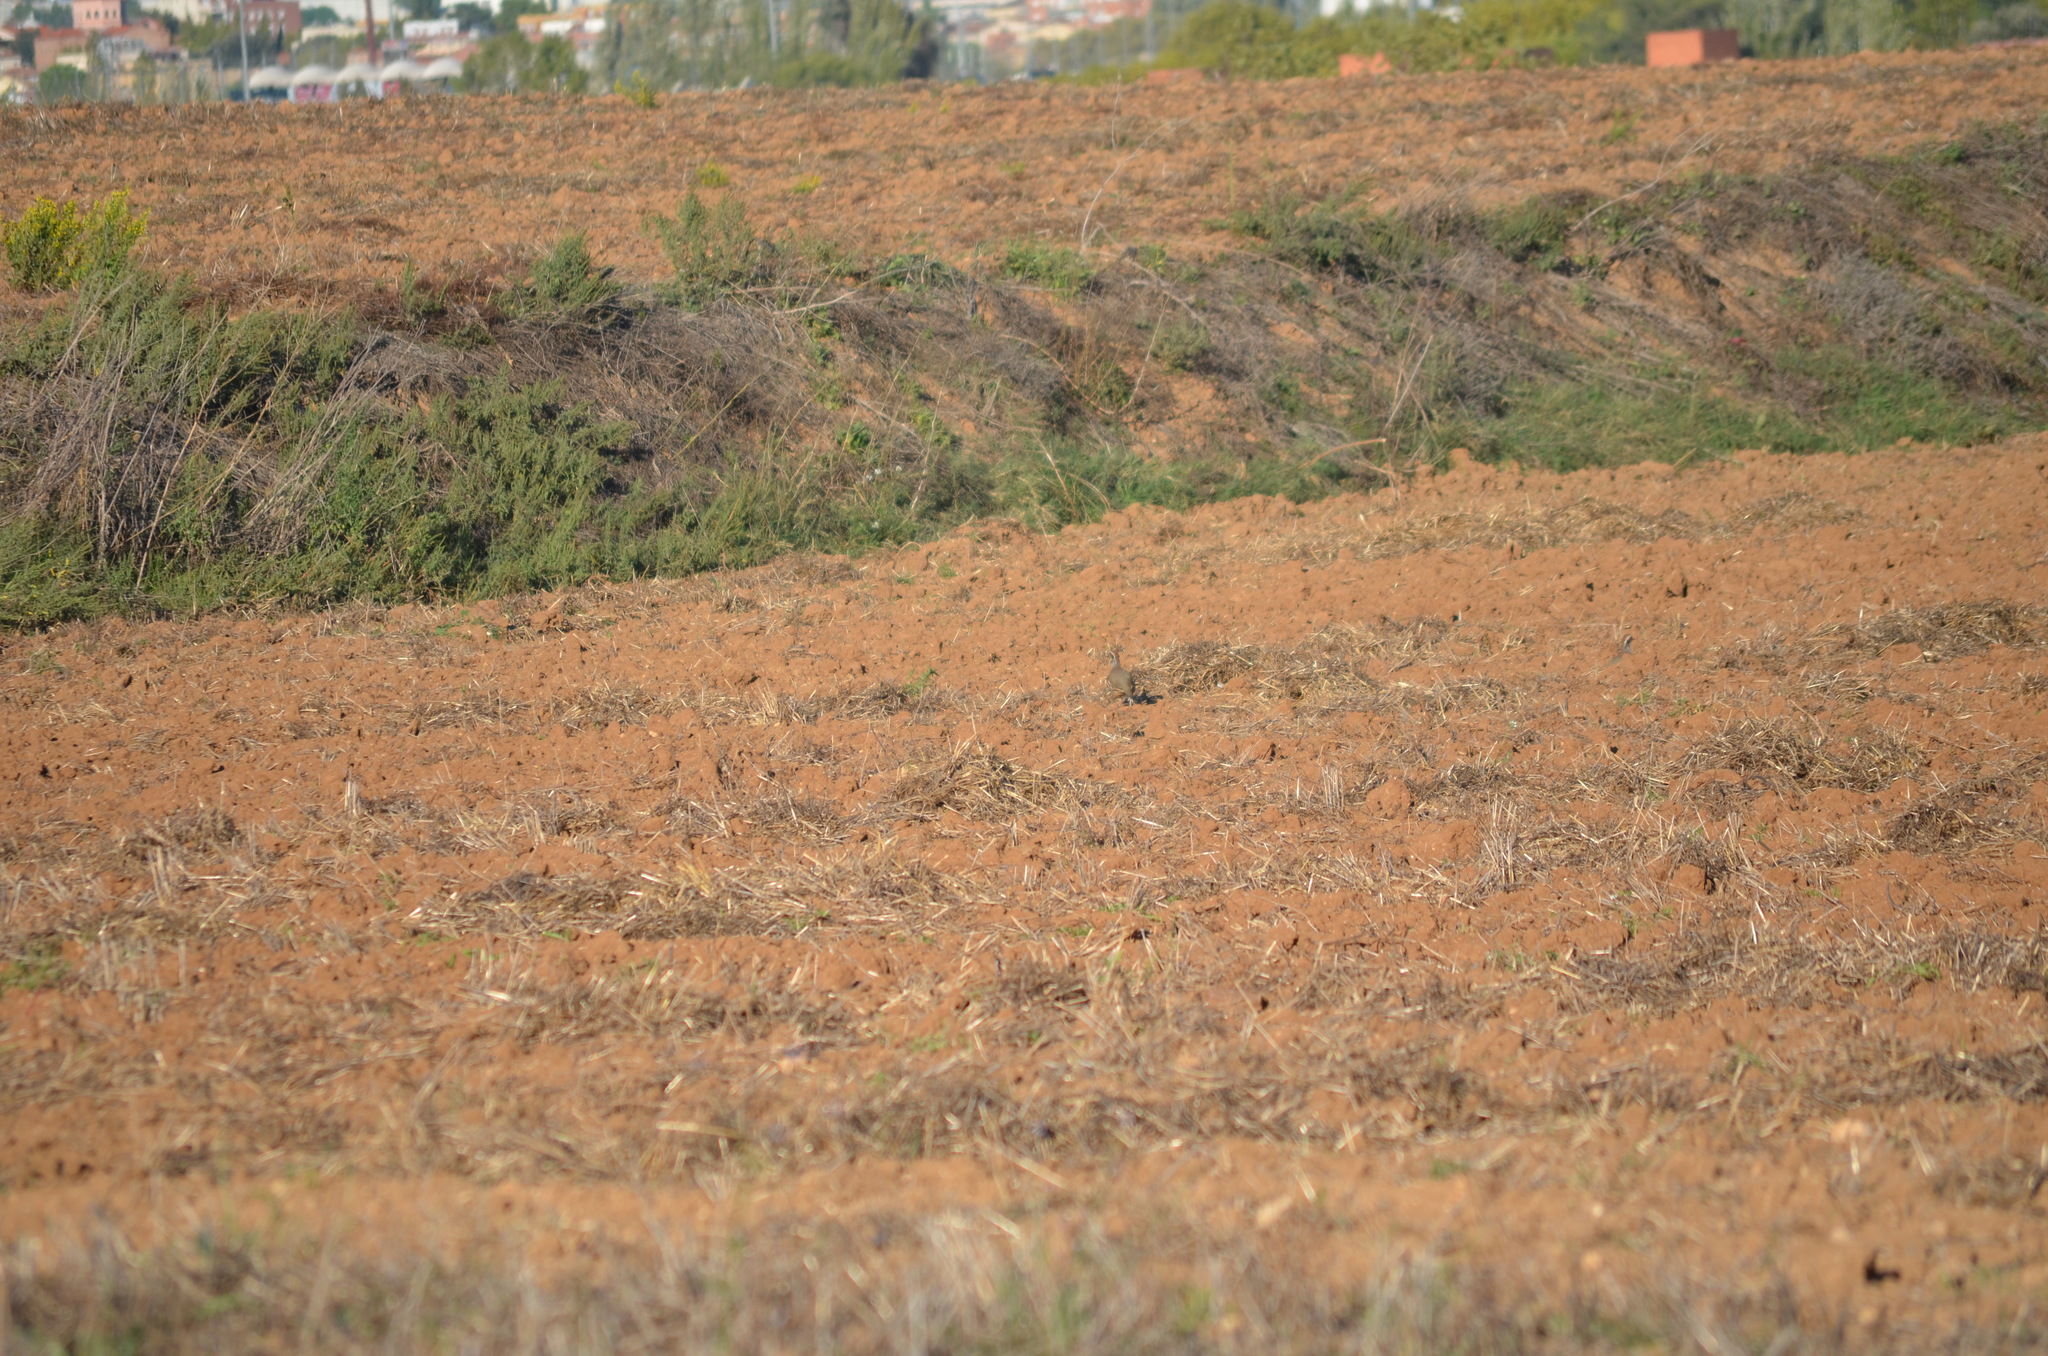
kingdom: Animalia
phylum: Chordata
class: Aves
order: Galliformes
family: Phasianidae
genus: Alectoris
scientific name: Alectoris rufa
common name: Red-legged partridge
